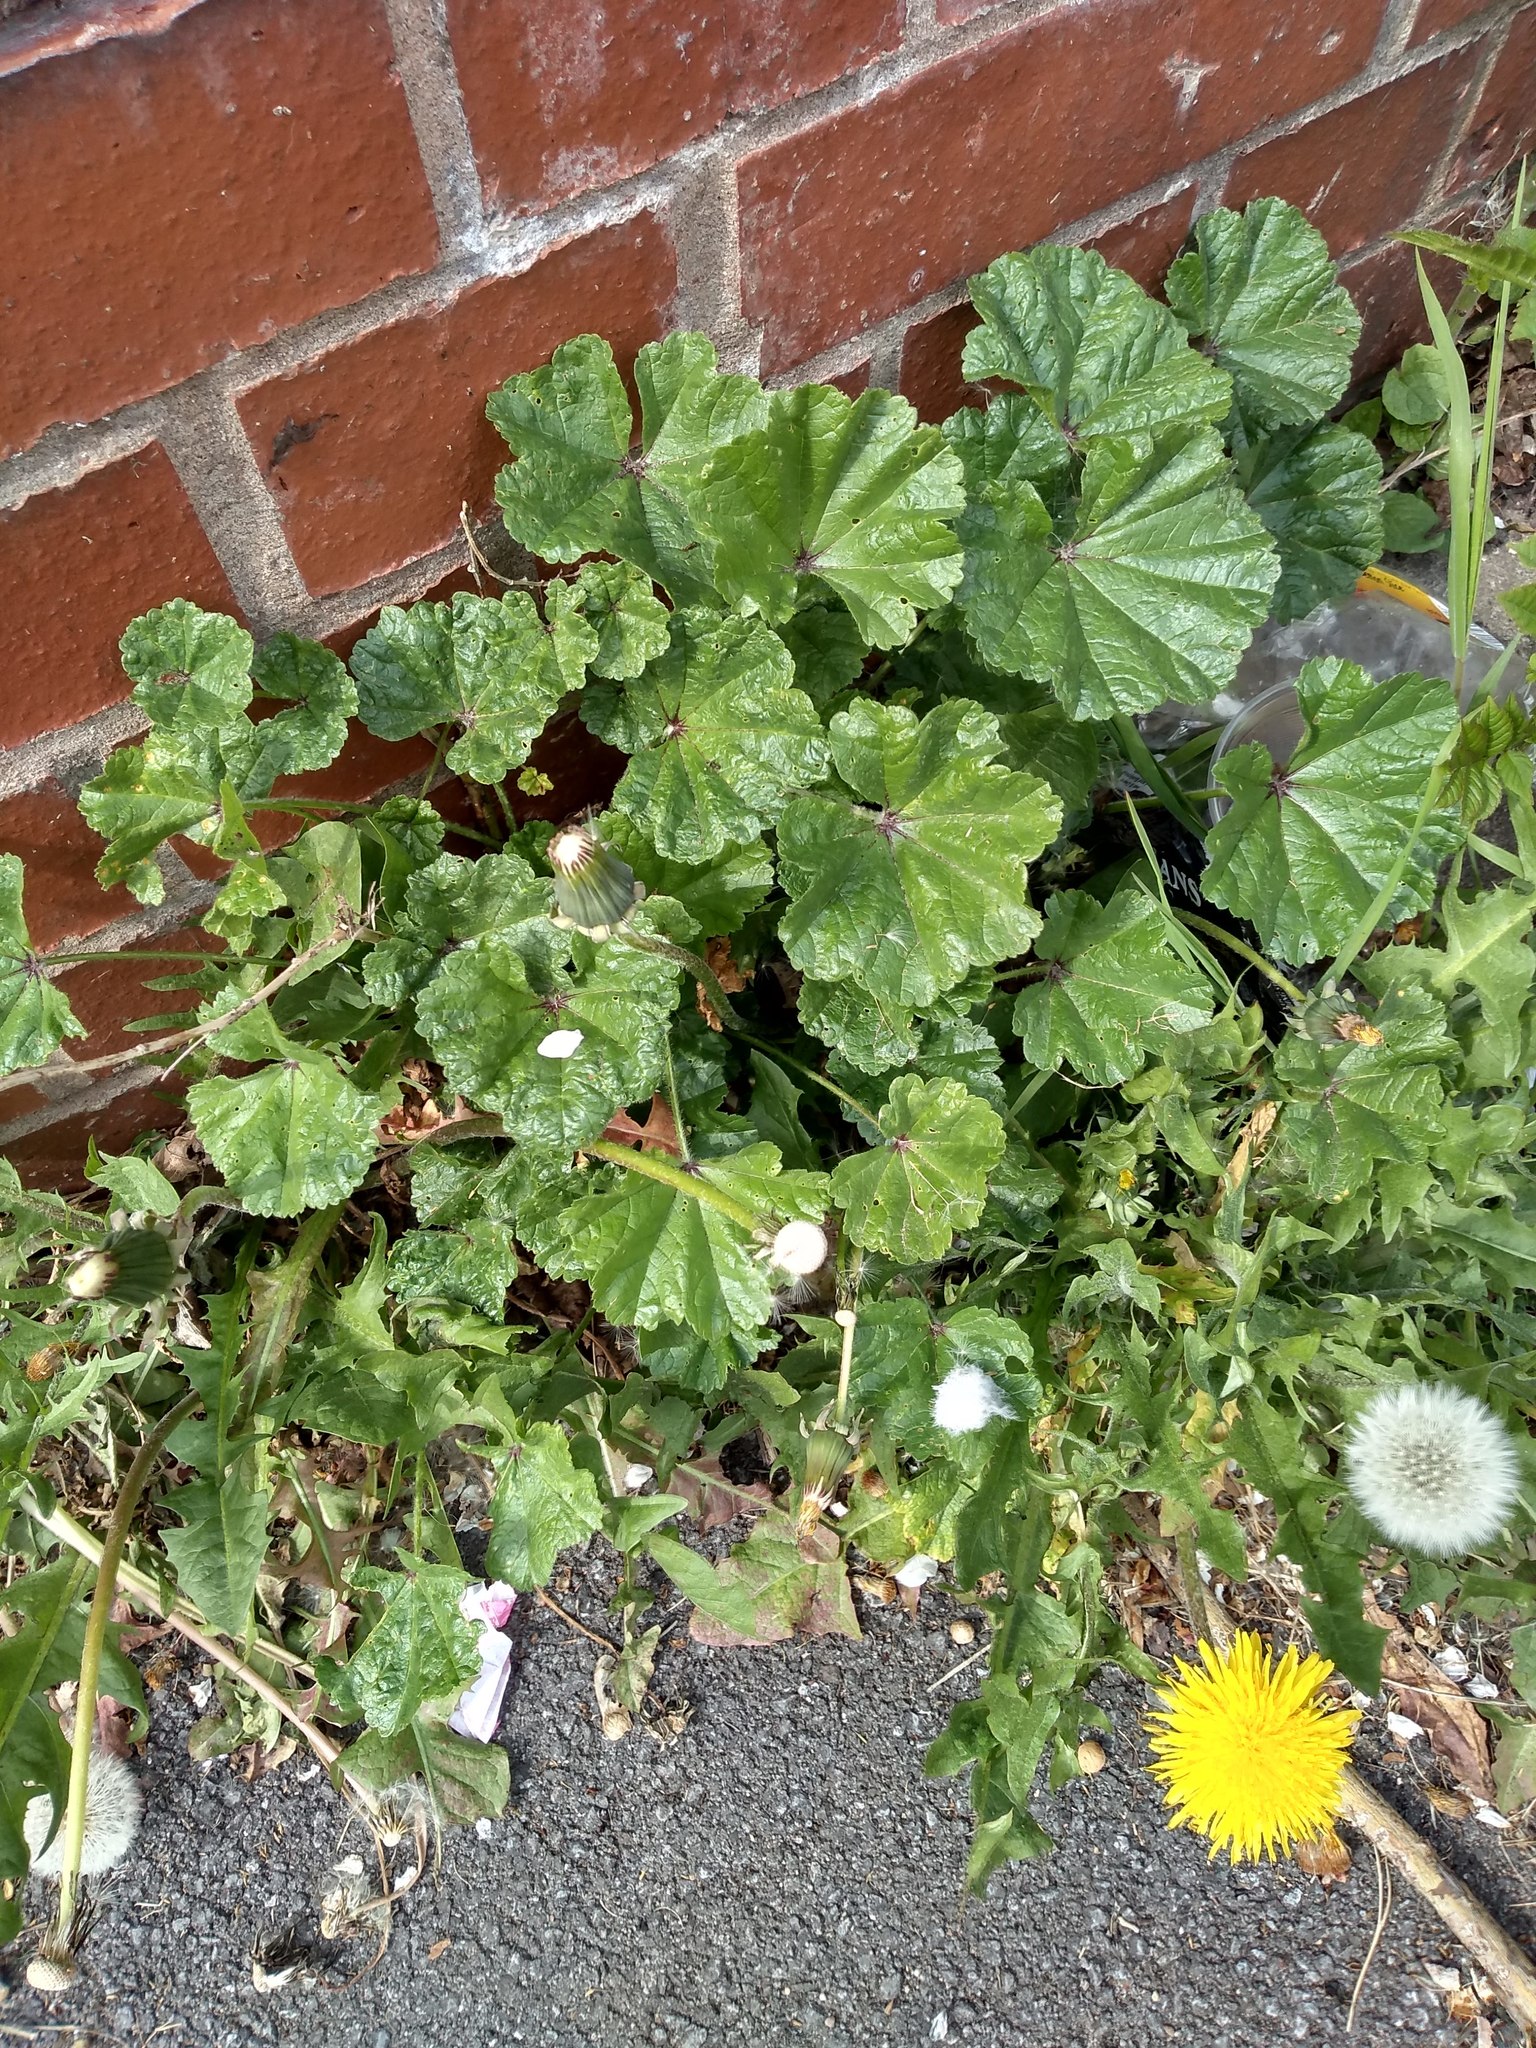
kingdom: Plantae
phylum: Tracheophyta
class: Magnoliopsida
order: Malvales
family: Malvaceae
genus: Malva
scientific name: Malva neglecta
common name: Common mallow
